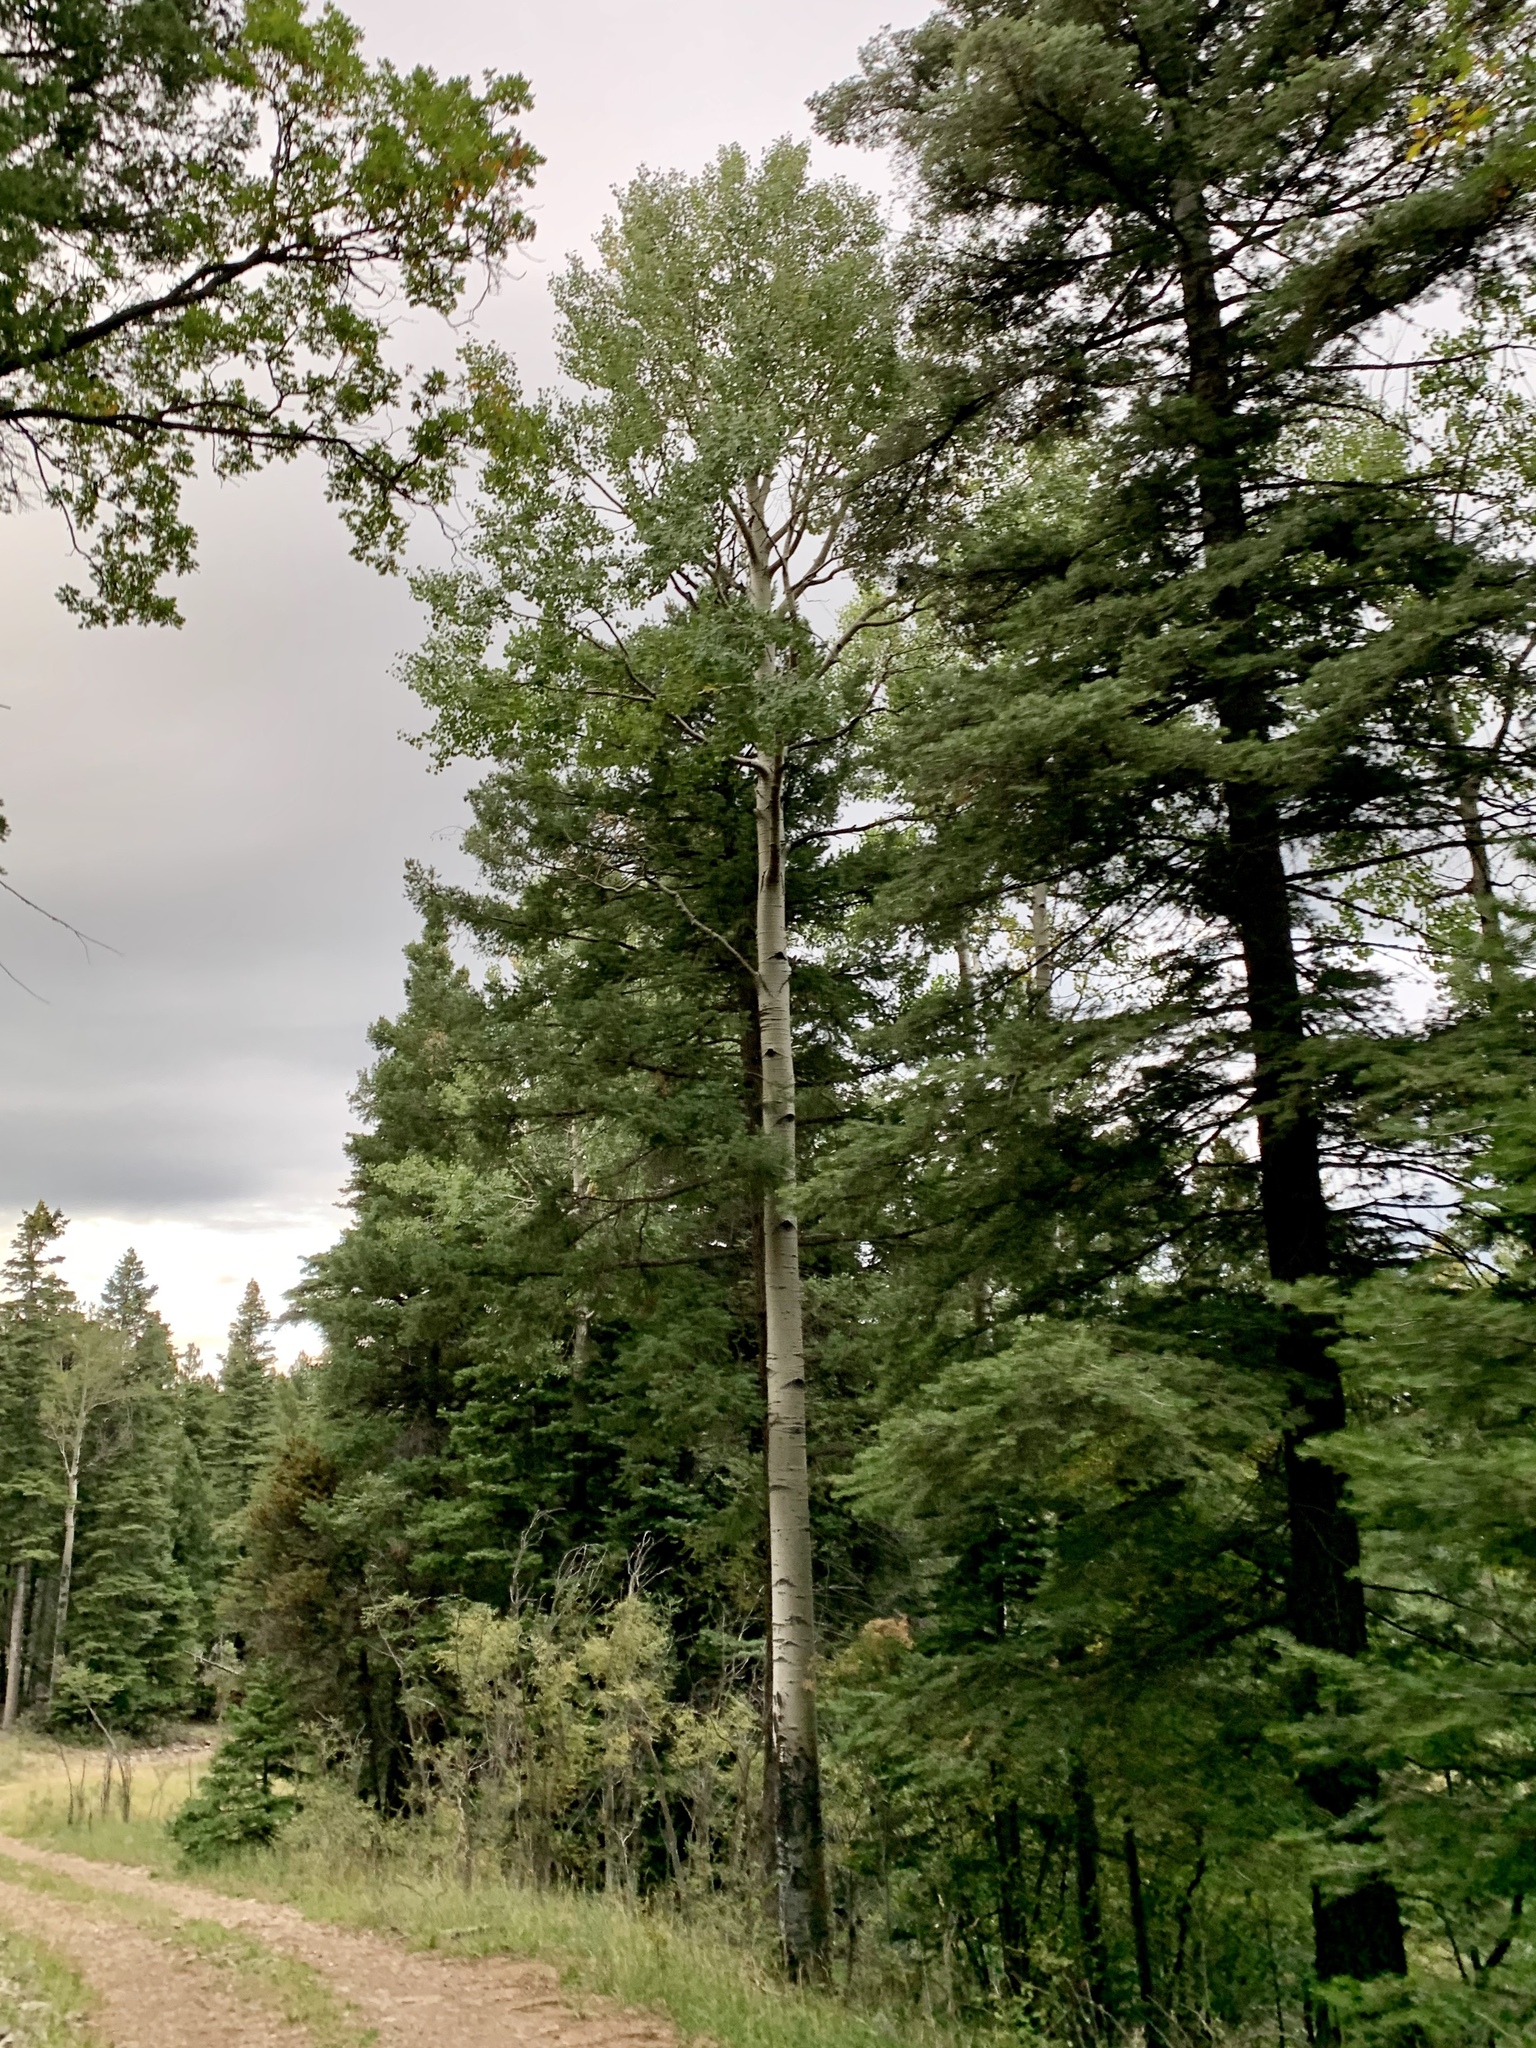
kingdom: Plantae
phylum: Tracheophyta
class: Magnoliopsida
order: Malpighiales
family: Salicaceae
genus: Populus
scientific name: Populus tremuloides
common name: Quaking aspen
